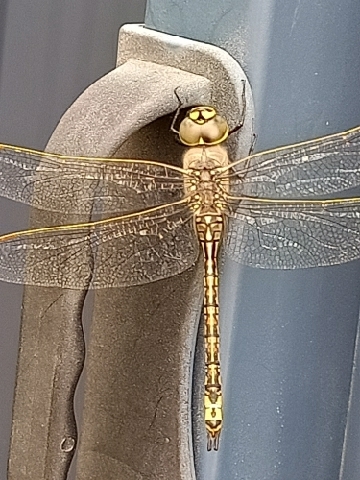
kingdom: Animalia
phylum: Arthropoda
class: Insecta
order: Odonata
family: Aeshnidae
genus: Anax
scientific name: Anax papuensis
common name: Australian emperor
